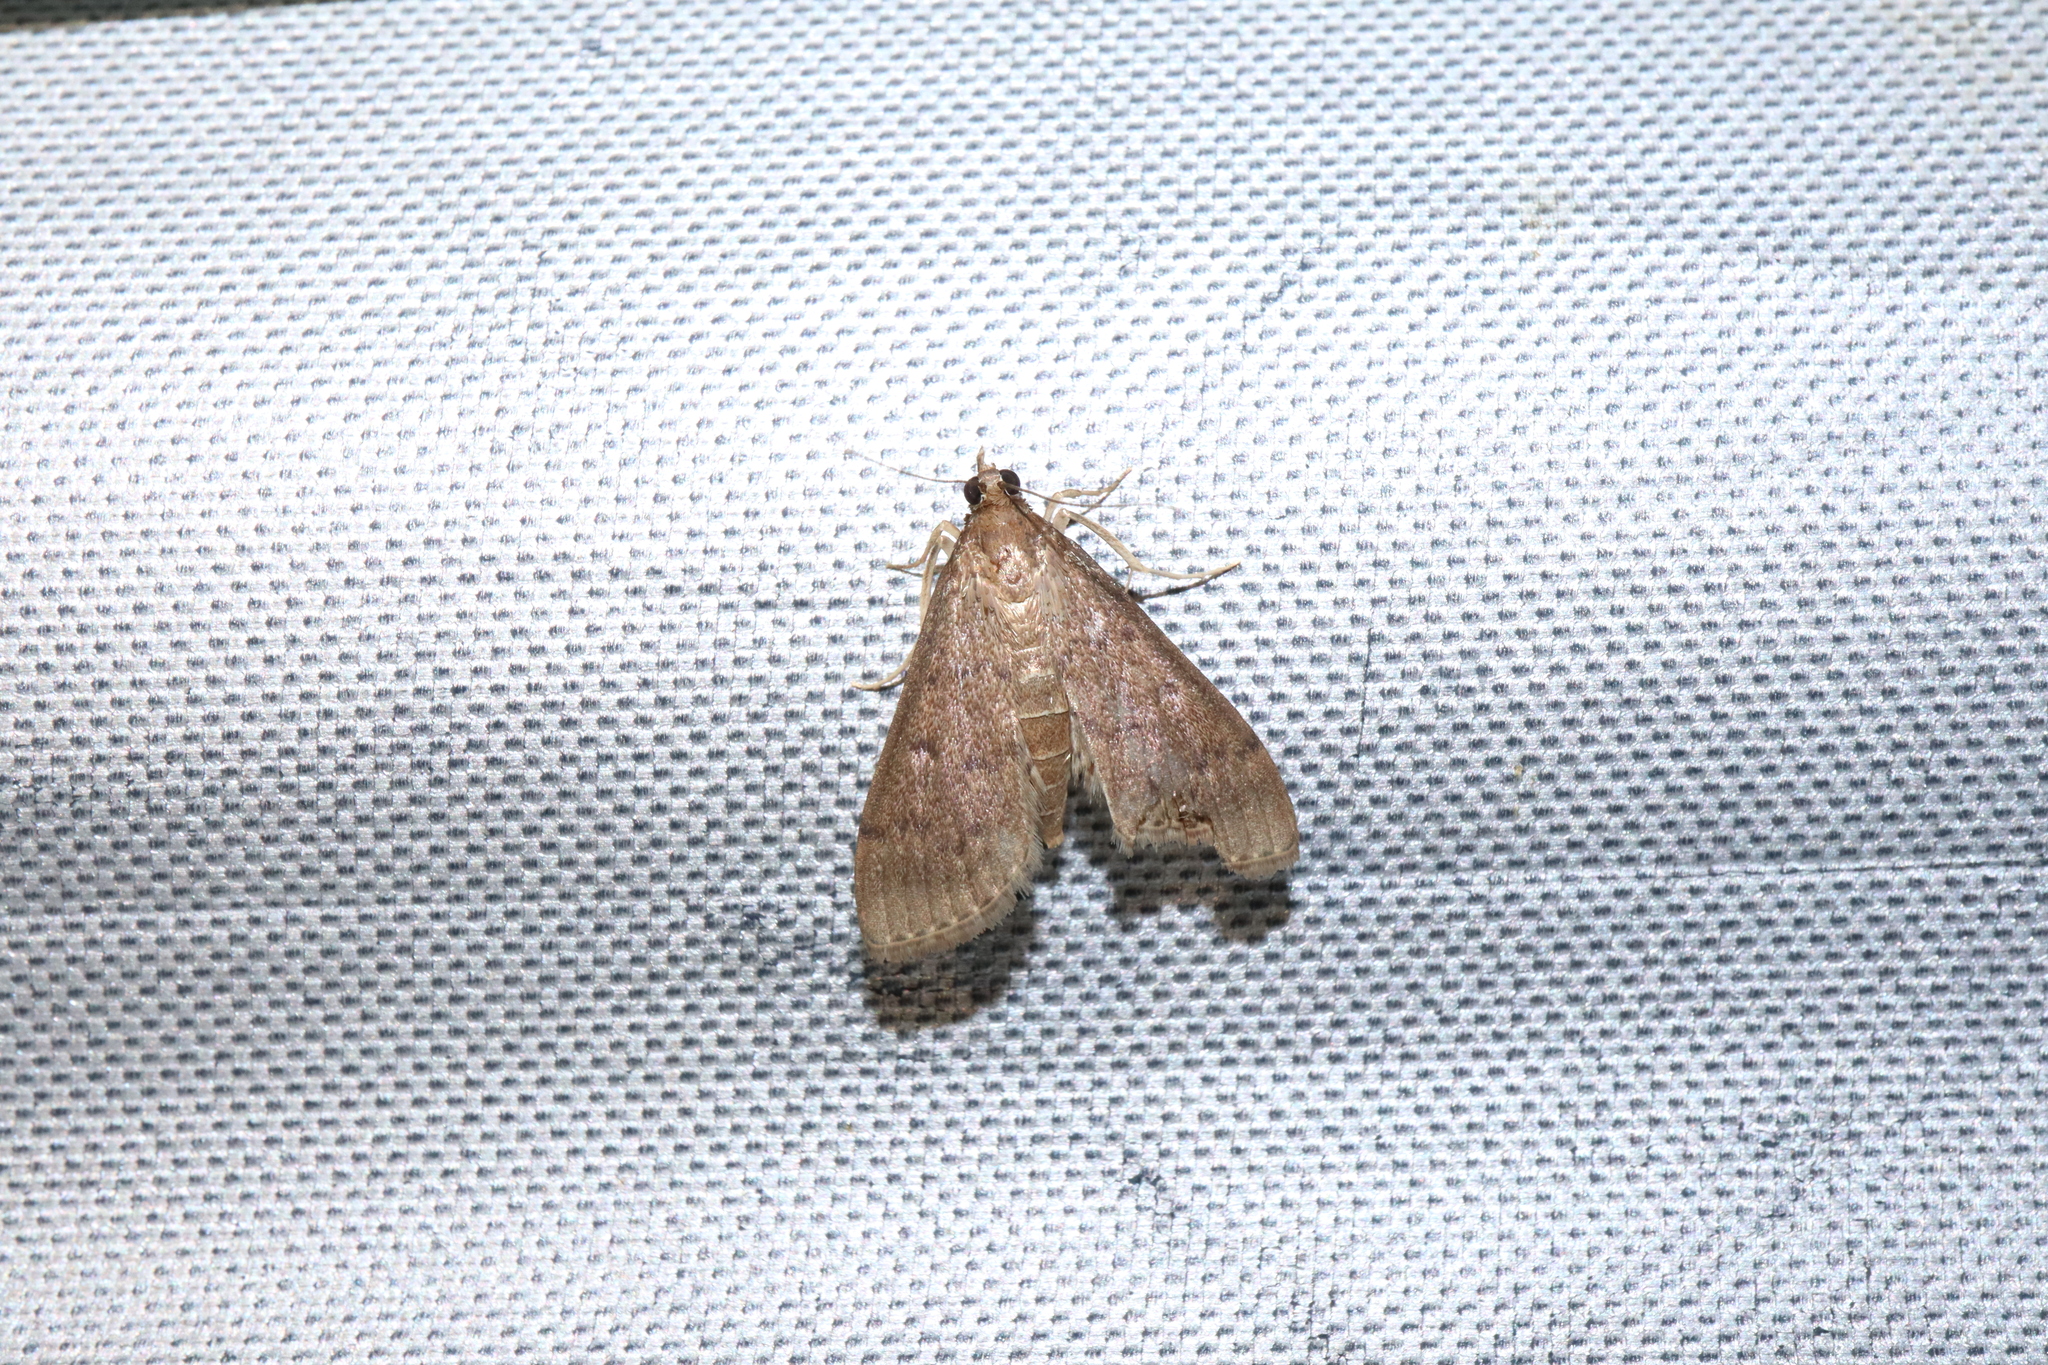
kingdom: Animalia
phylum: Arthropoda
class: Insecta
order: Lepidoptera
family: Crambidae
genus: Herpetogramma
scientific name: Herpetogramma licarsisalis
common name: Grass webworm
